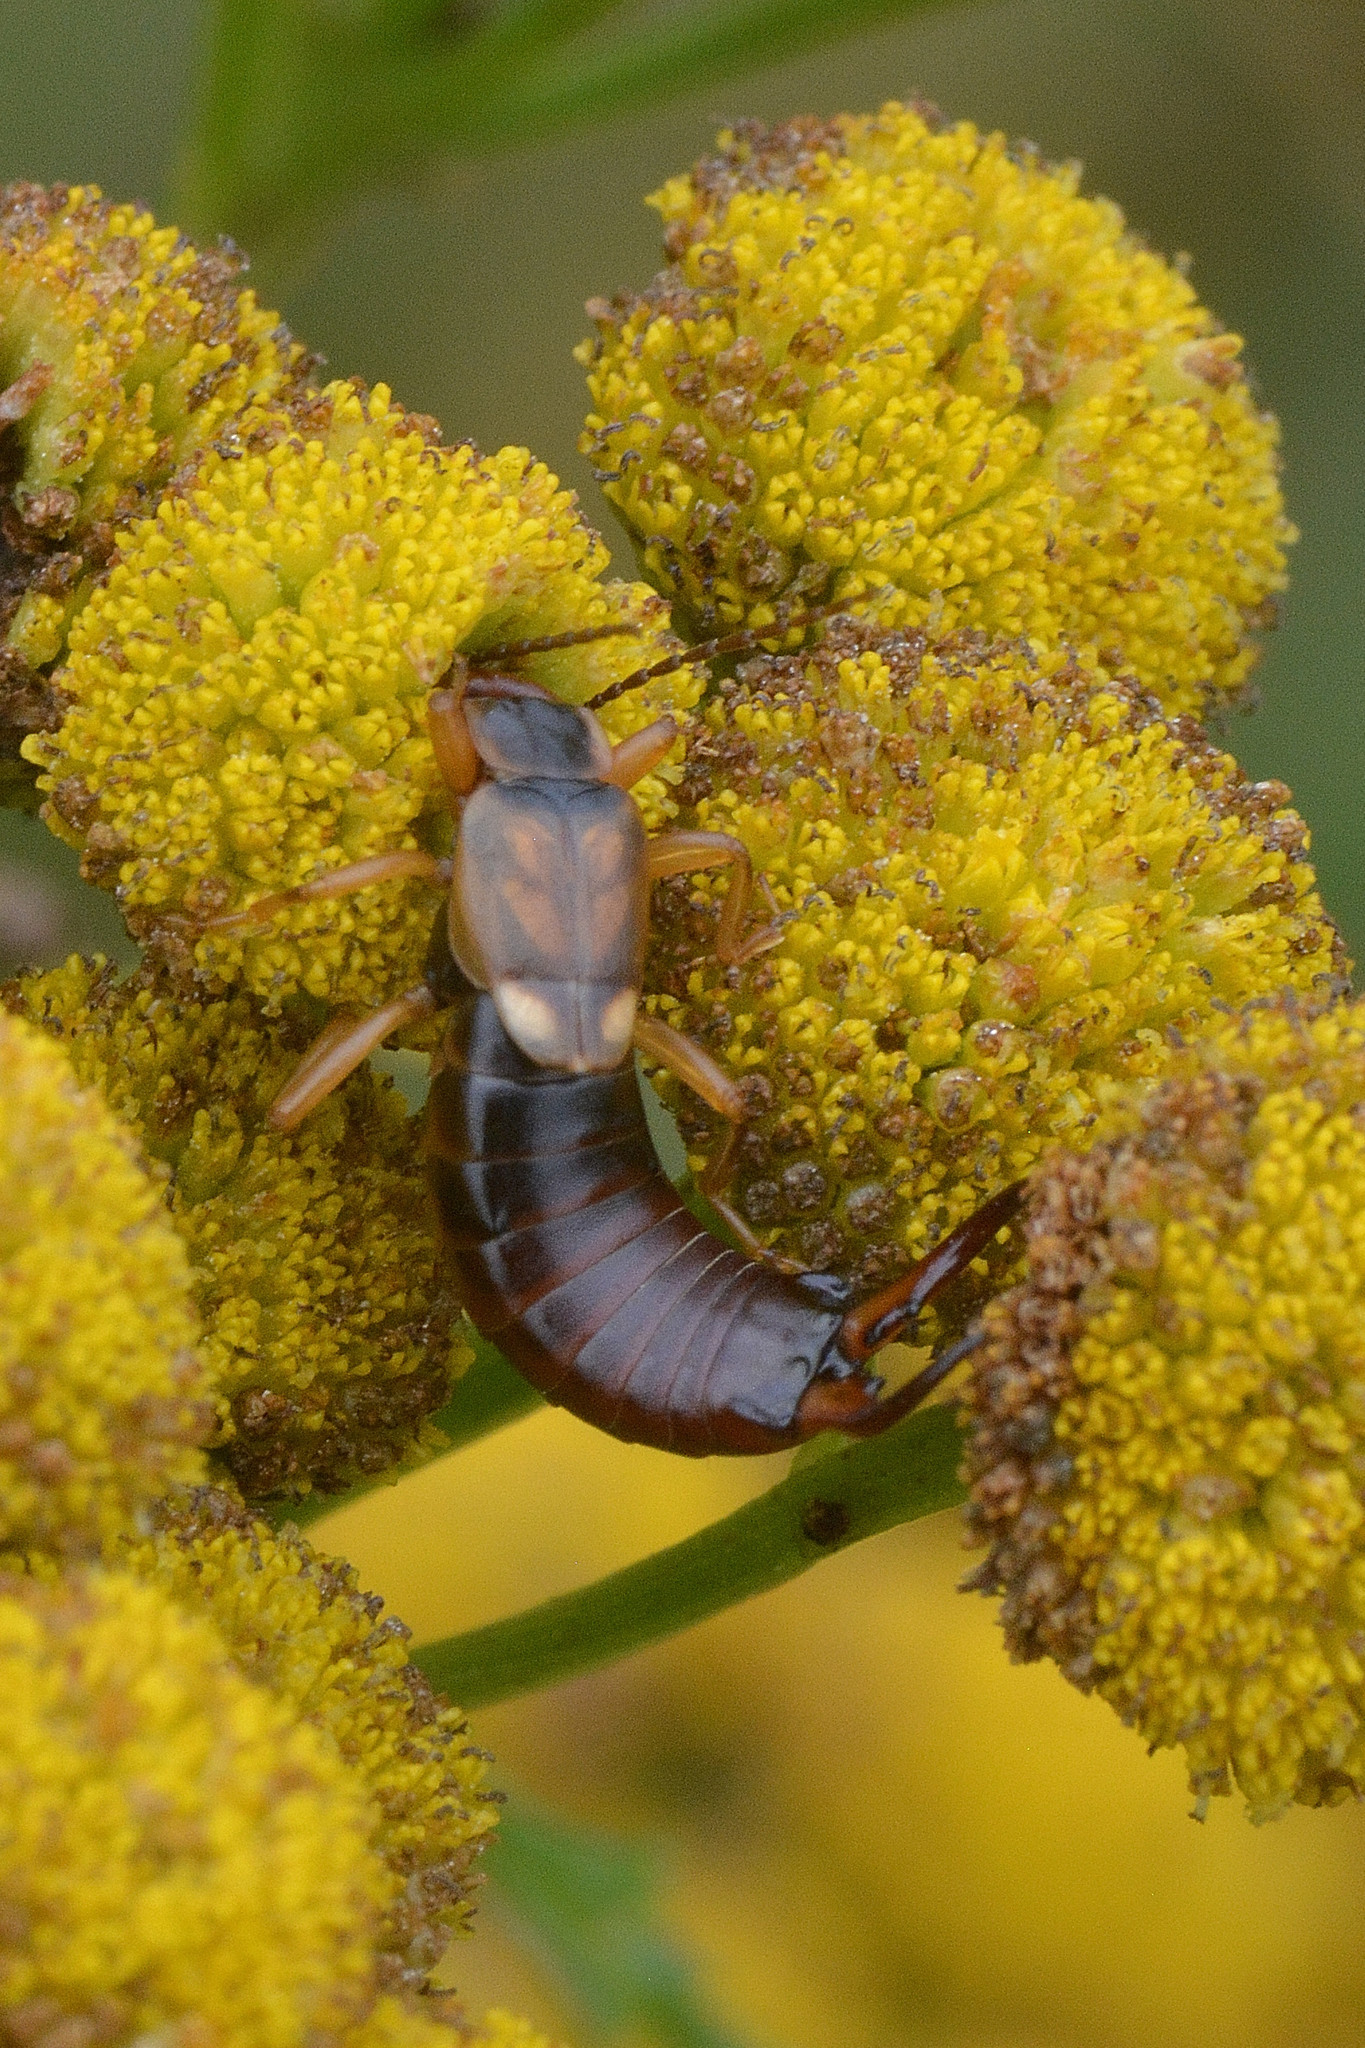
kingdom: Animalia
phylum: Arthropoda
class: Insecta
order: Dermaptera
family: Forficulidae
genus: Forficula
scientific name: Forficula
